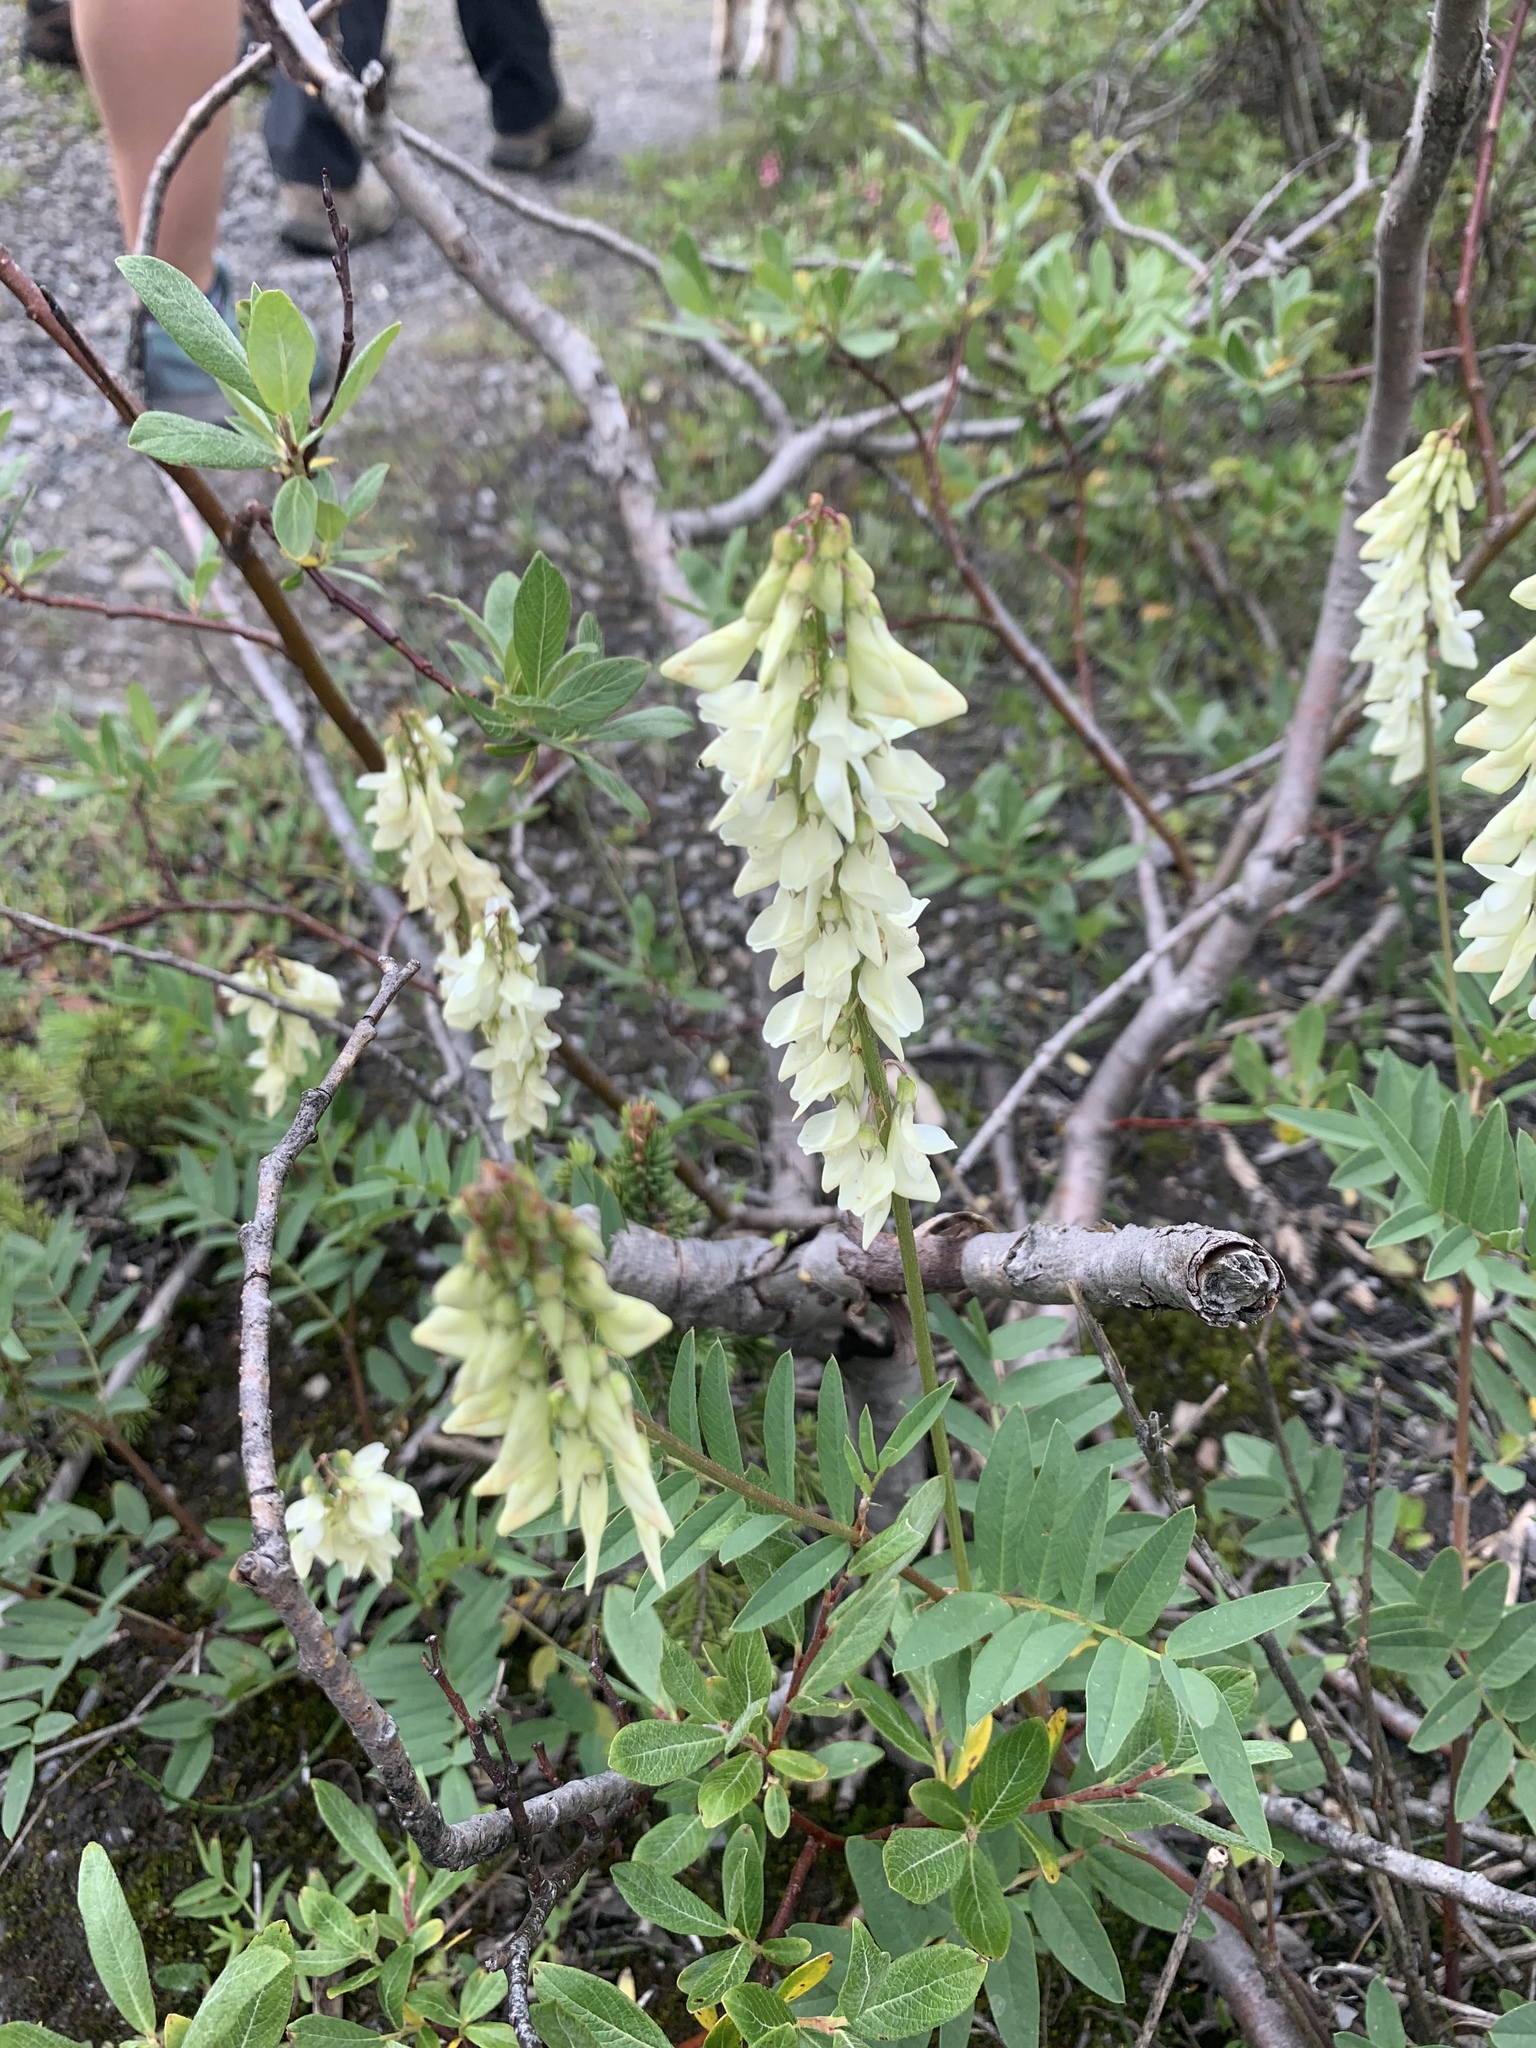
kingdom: Plantae
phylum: Tracheophyta
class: Magnoliopsida
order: Fabales
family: Fabaceae
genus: Hedysarum
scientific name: Hedysarum sulphurescens
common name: Sulphur hedysarum
